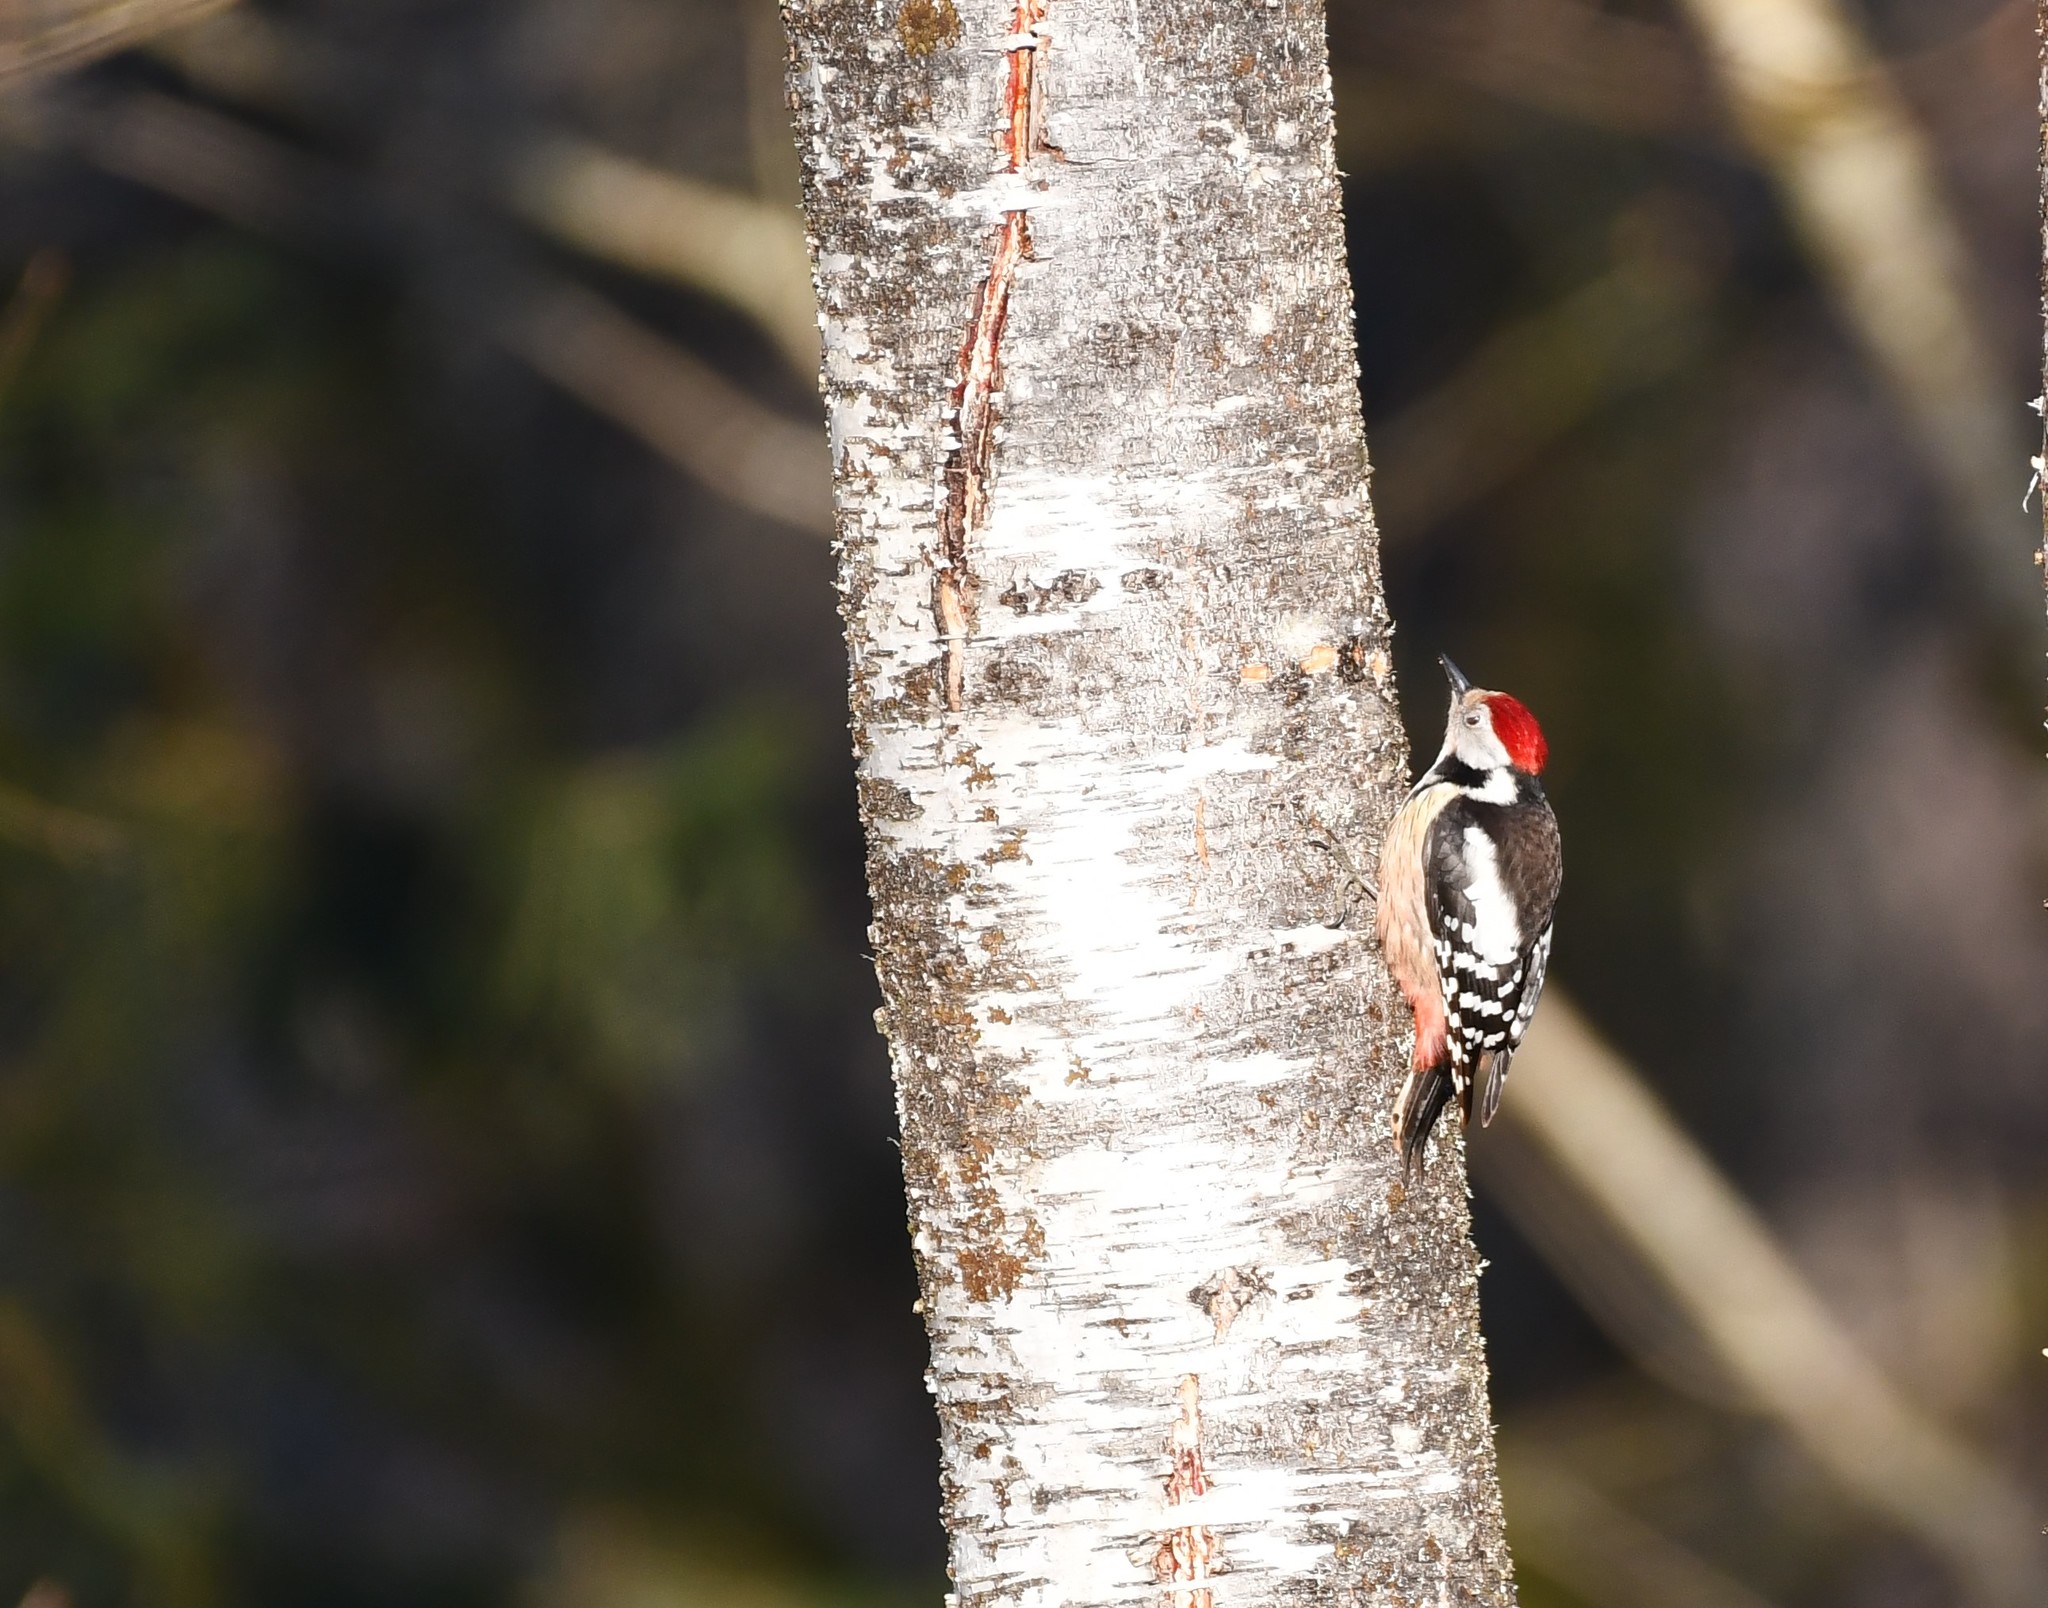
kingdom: Animalia
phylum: Chordata
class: Aves
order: Piciformes
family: Picidae
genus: Dendrocoptes
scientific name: Dendrocoptes medius
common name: Middle spotted woodpecker
